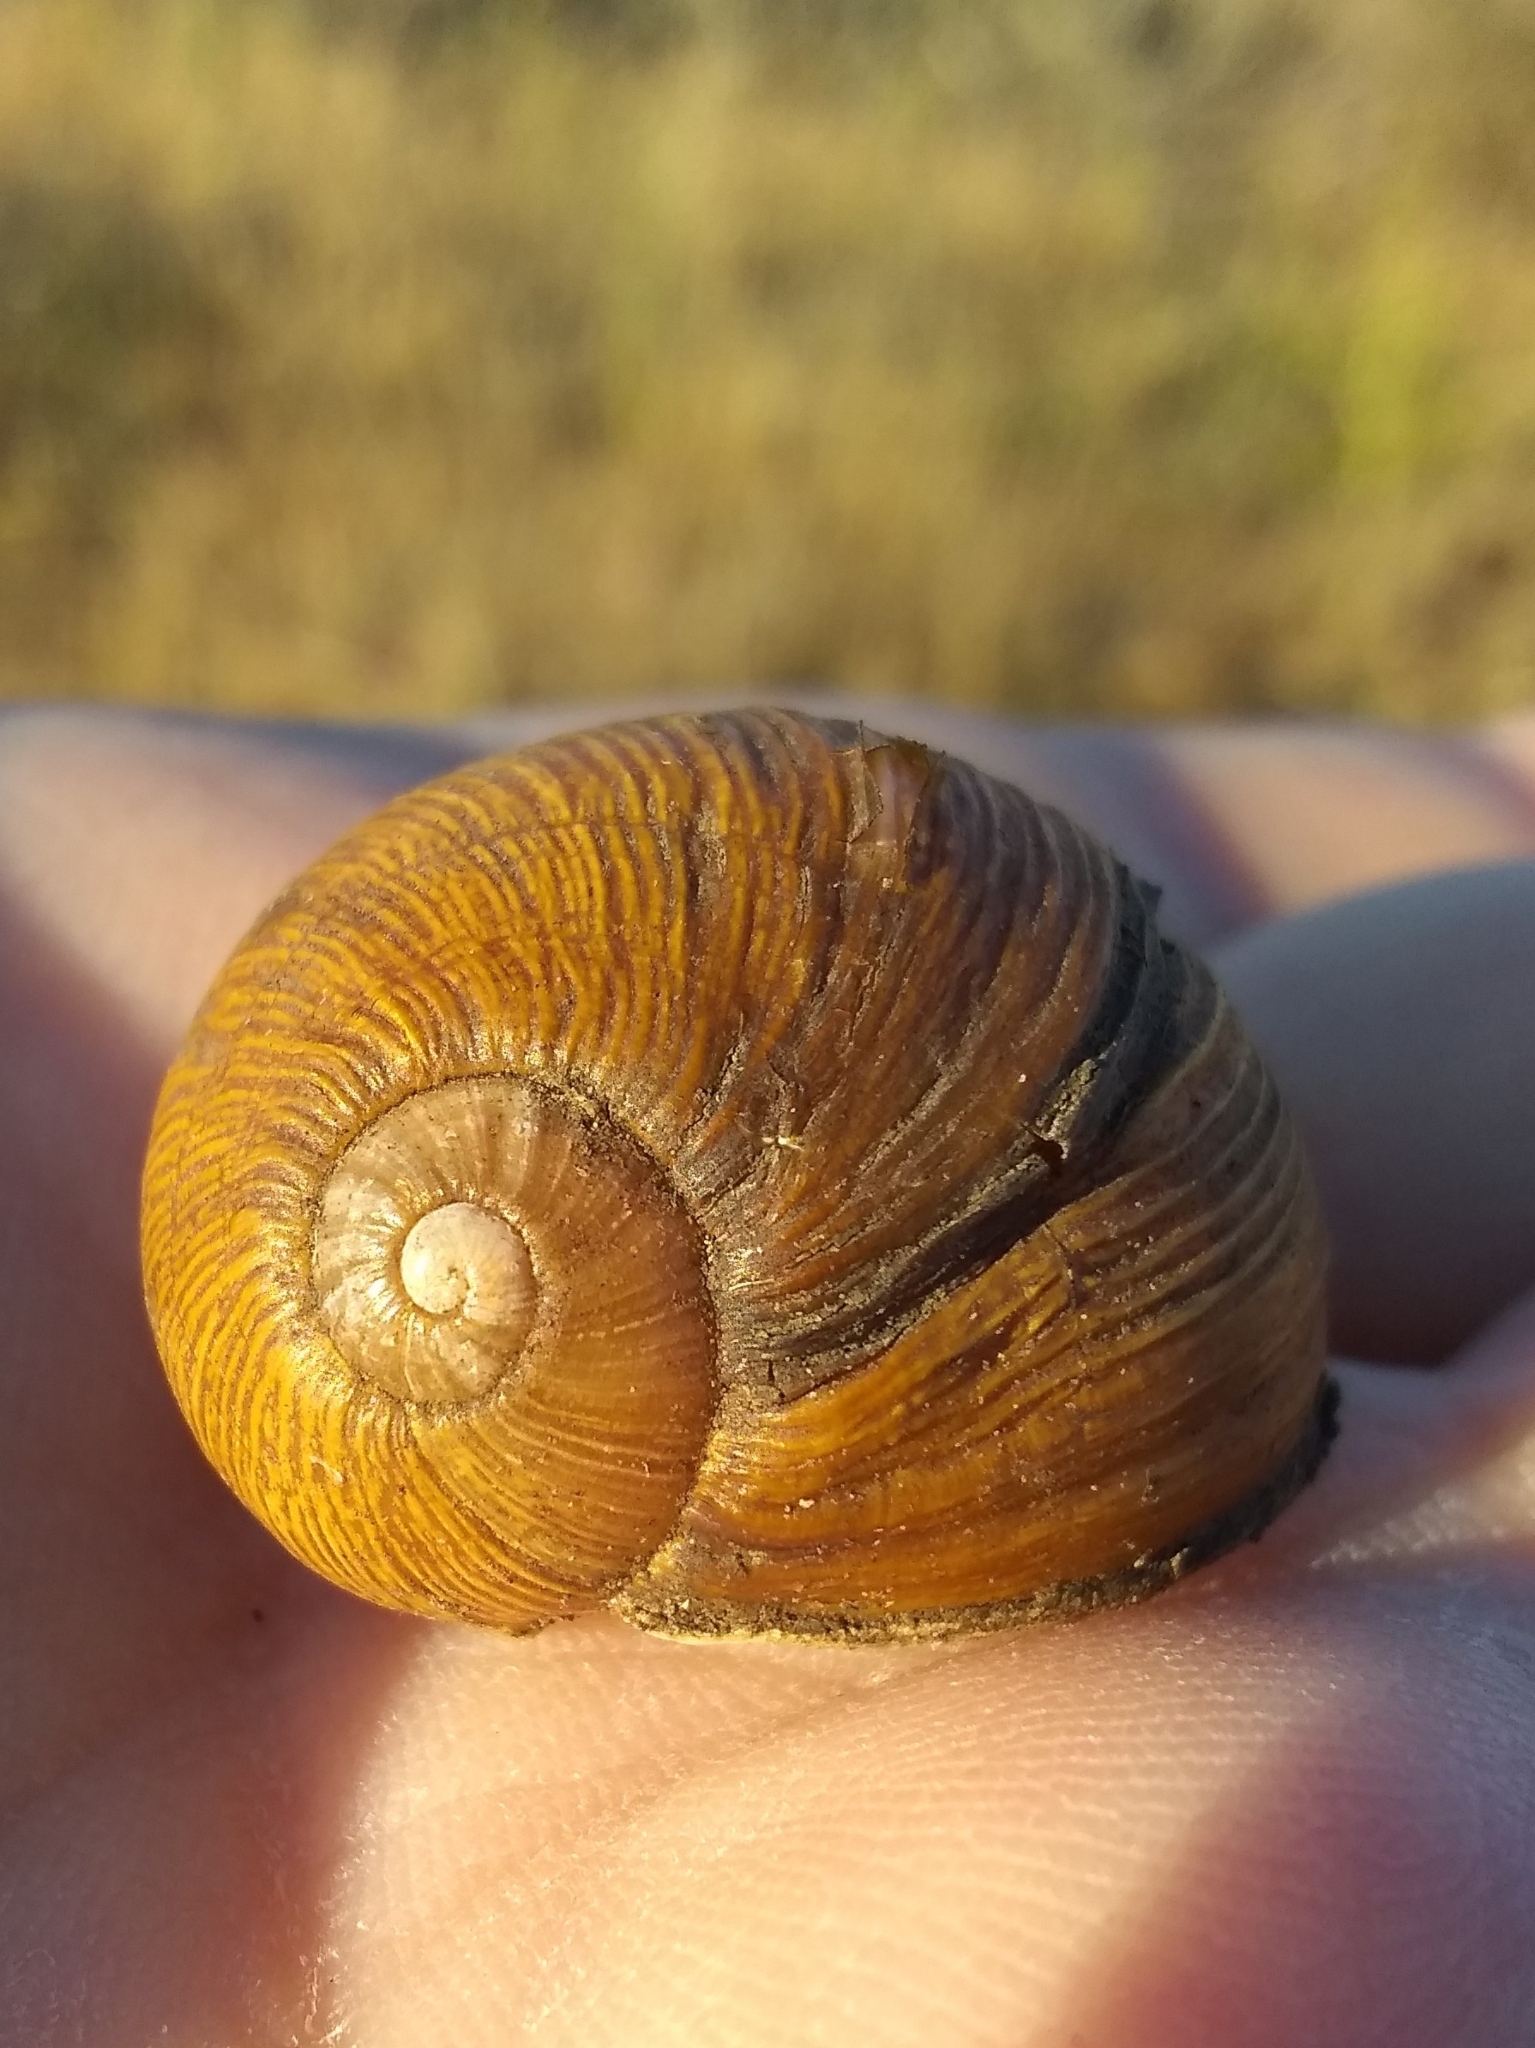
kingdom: Animalia
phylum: Mollusca
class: Gastropoda
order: Stylommatophora
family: Helicidae
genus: Cantareus
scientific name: Cantareus apertus
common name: Green gardensnail
